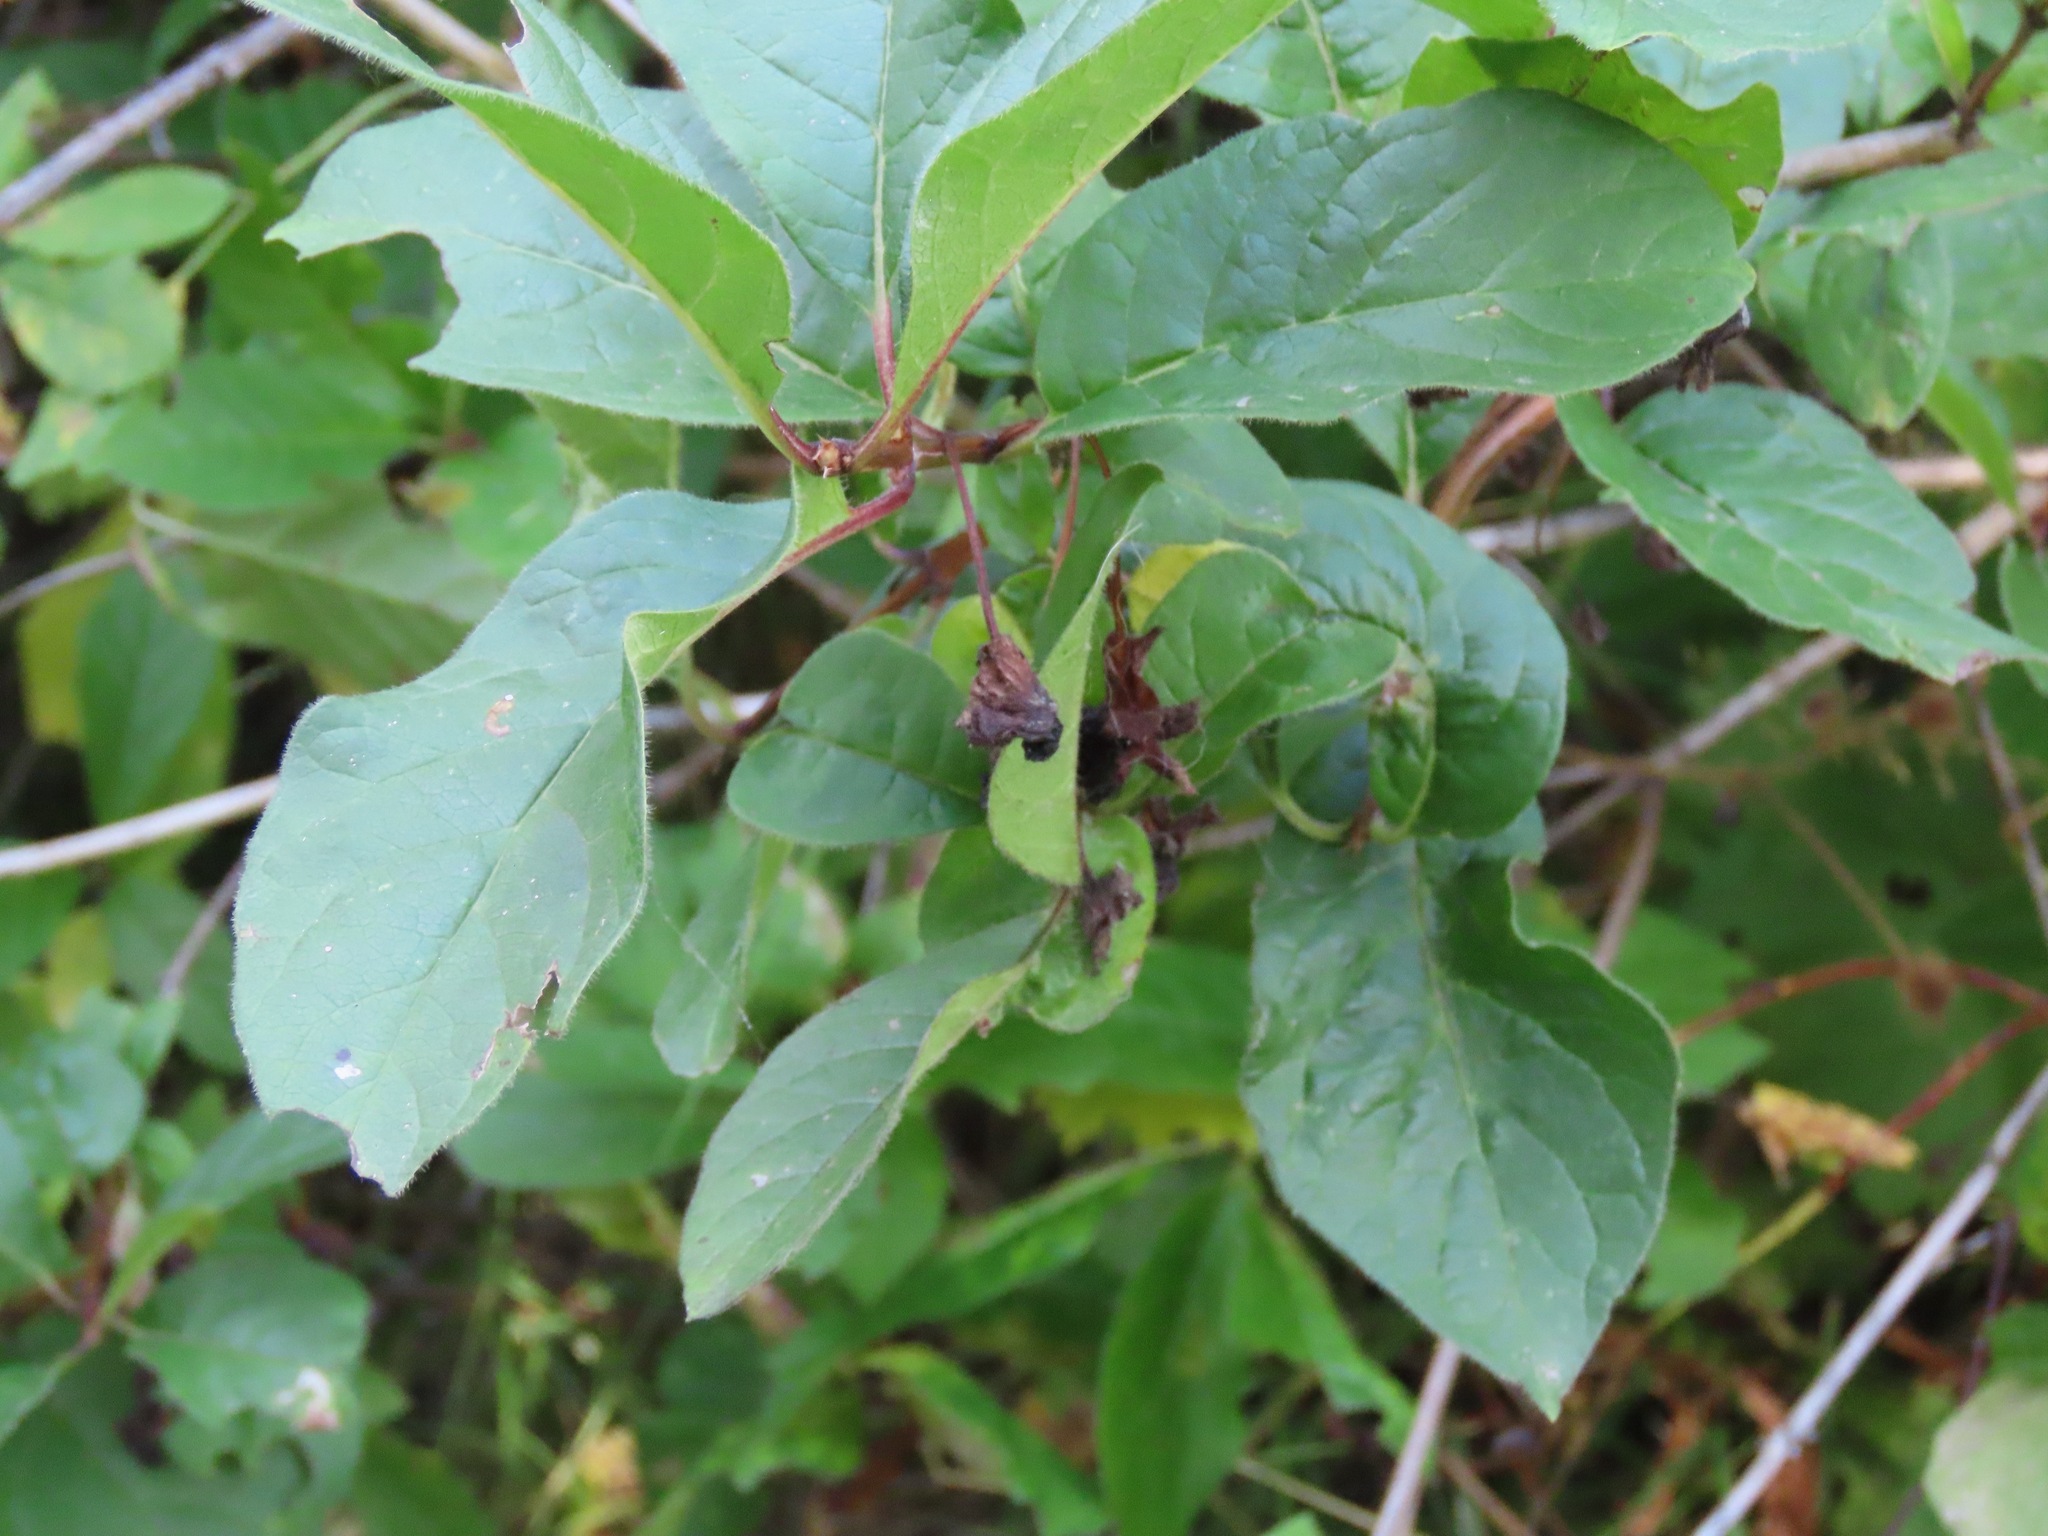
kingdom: Plantae
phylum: Tracheophyta
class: Magnoliopsida
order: Dipsacales
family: Caprifoliaceae
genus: Lonicera
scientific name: Lonicera involucrata
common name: Californian honeysuckle
